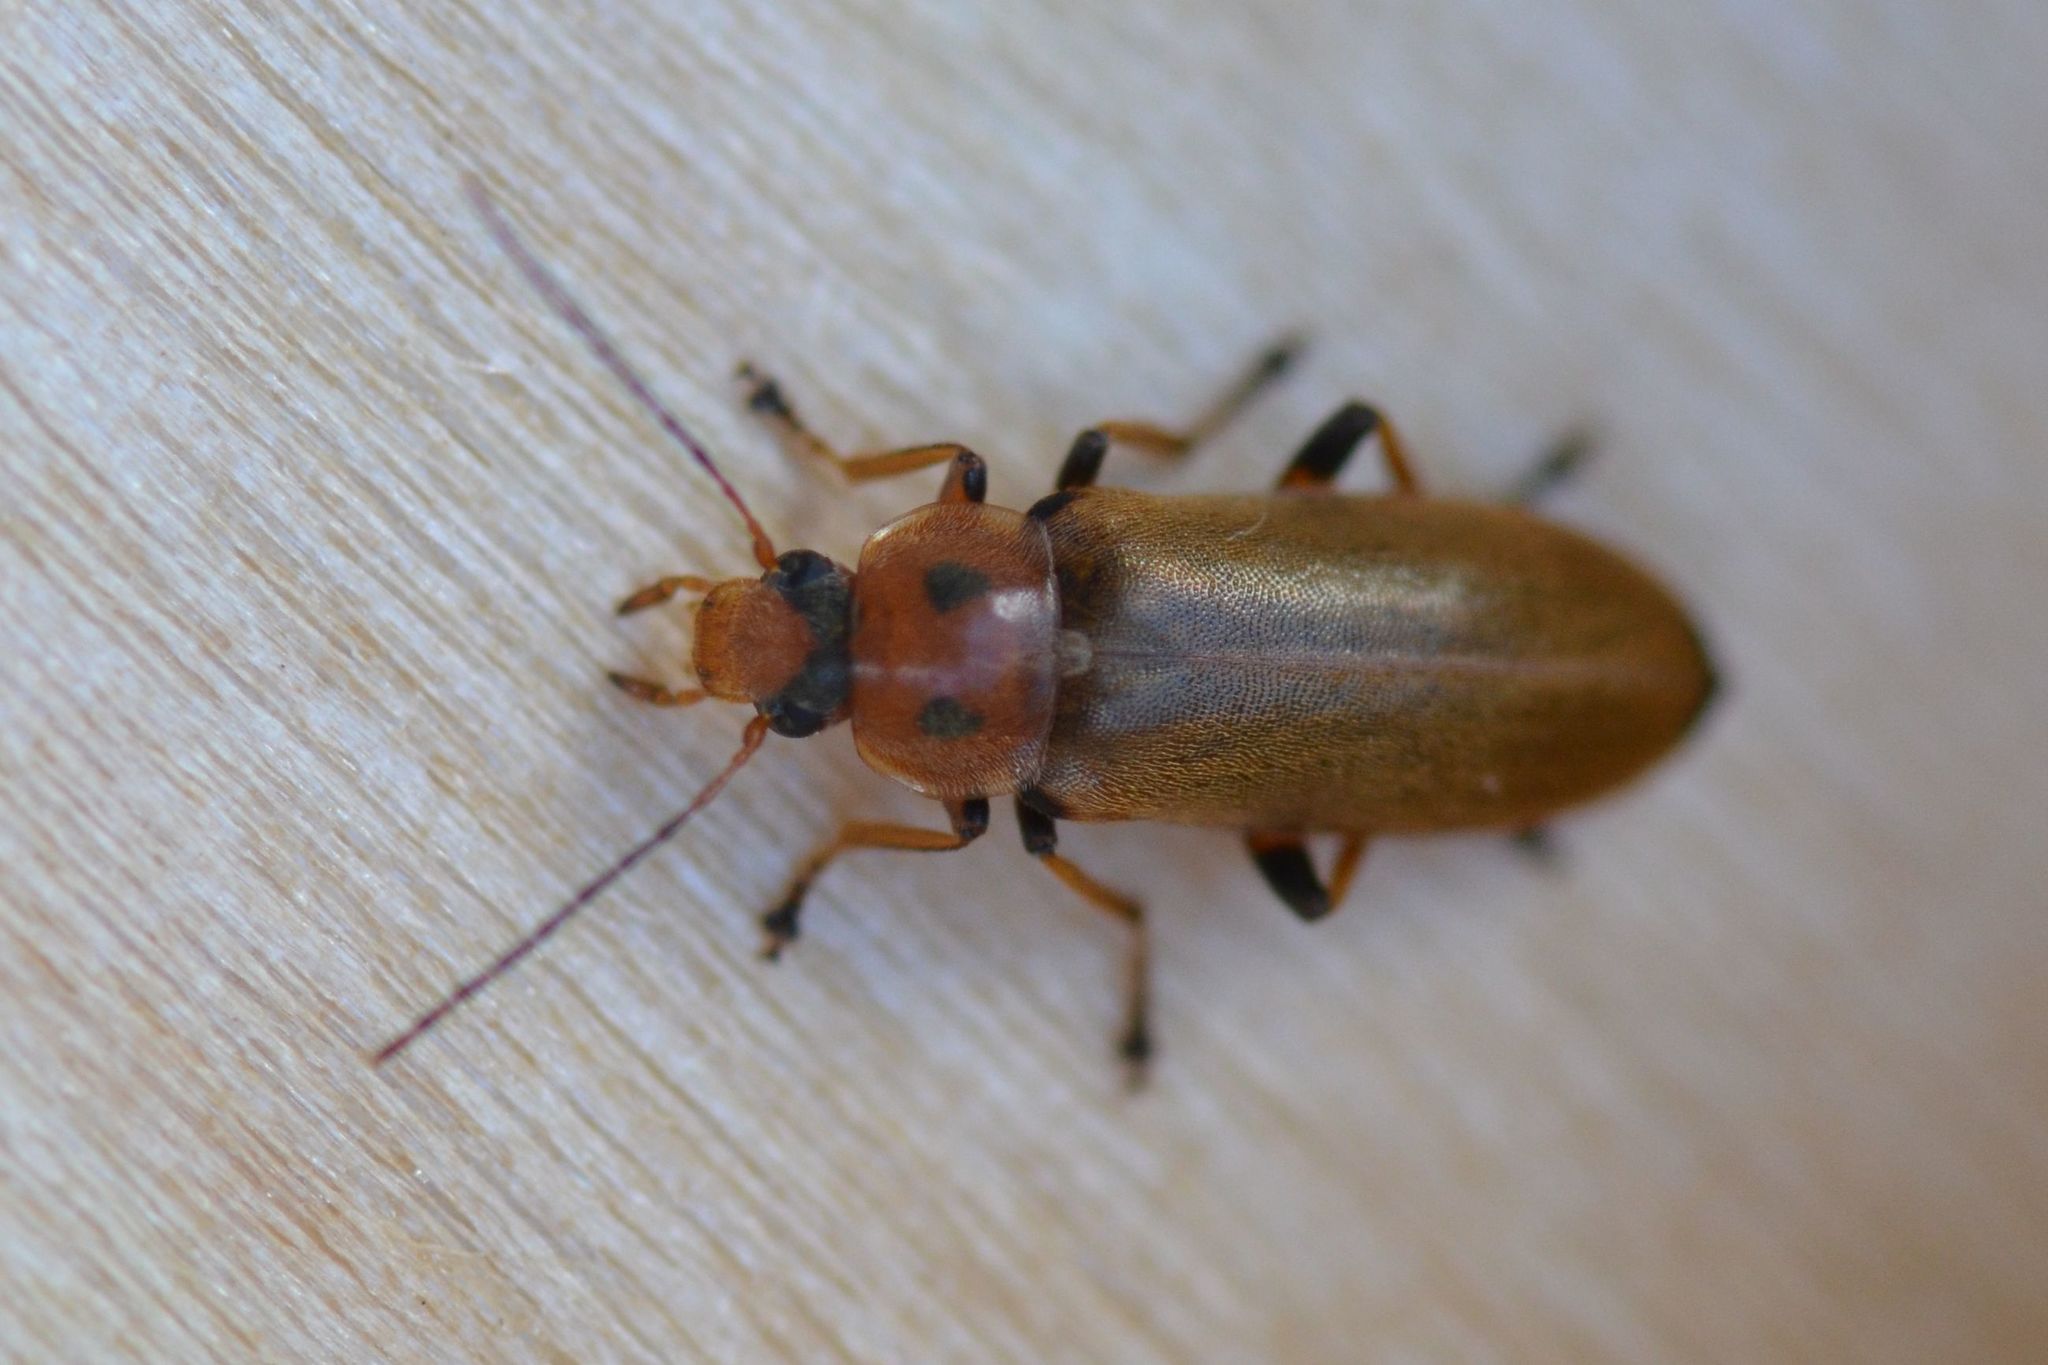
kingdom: Animalia
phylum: Arthropoda
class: Insecta
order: Coleoptera
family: Melandryidae
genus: Osphya
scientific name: Osphya bipunctata
